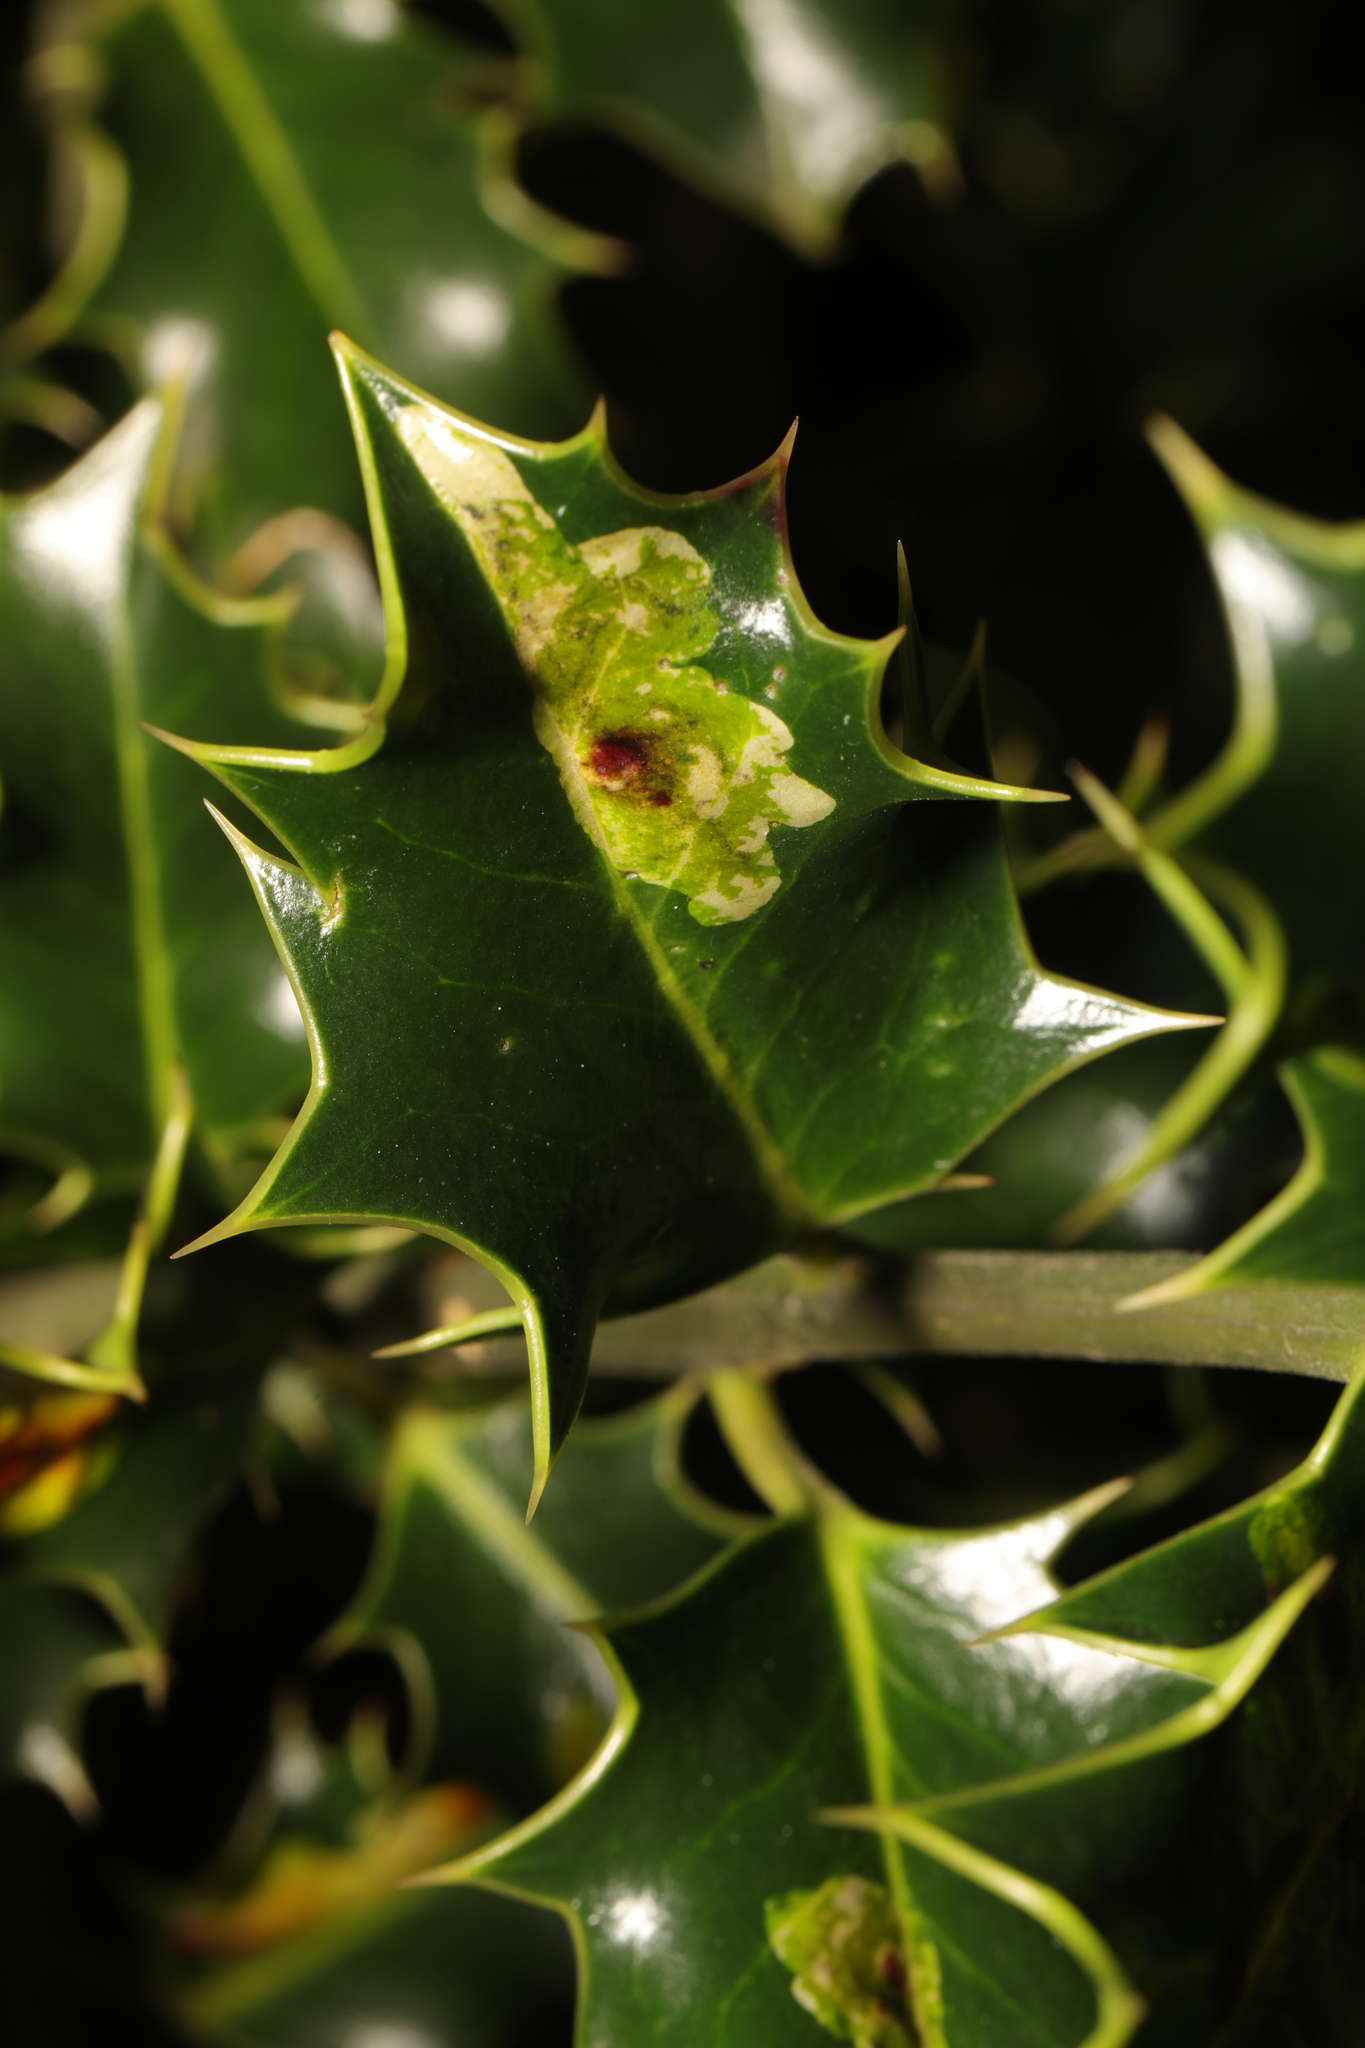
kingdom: Animalia
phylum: Arthropoda
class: Insecta
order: Diptera
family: Agromyzidae
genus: Phytomyza
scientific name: Phytomyza ilicis
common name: Holly leafminer
